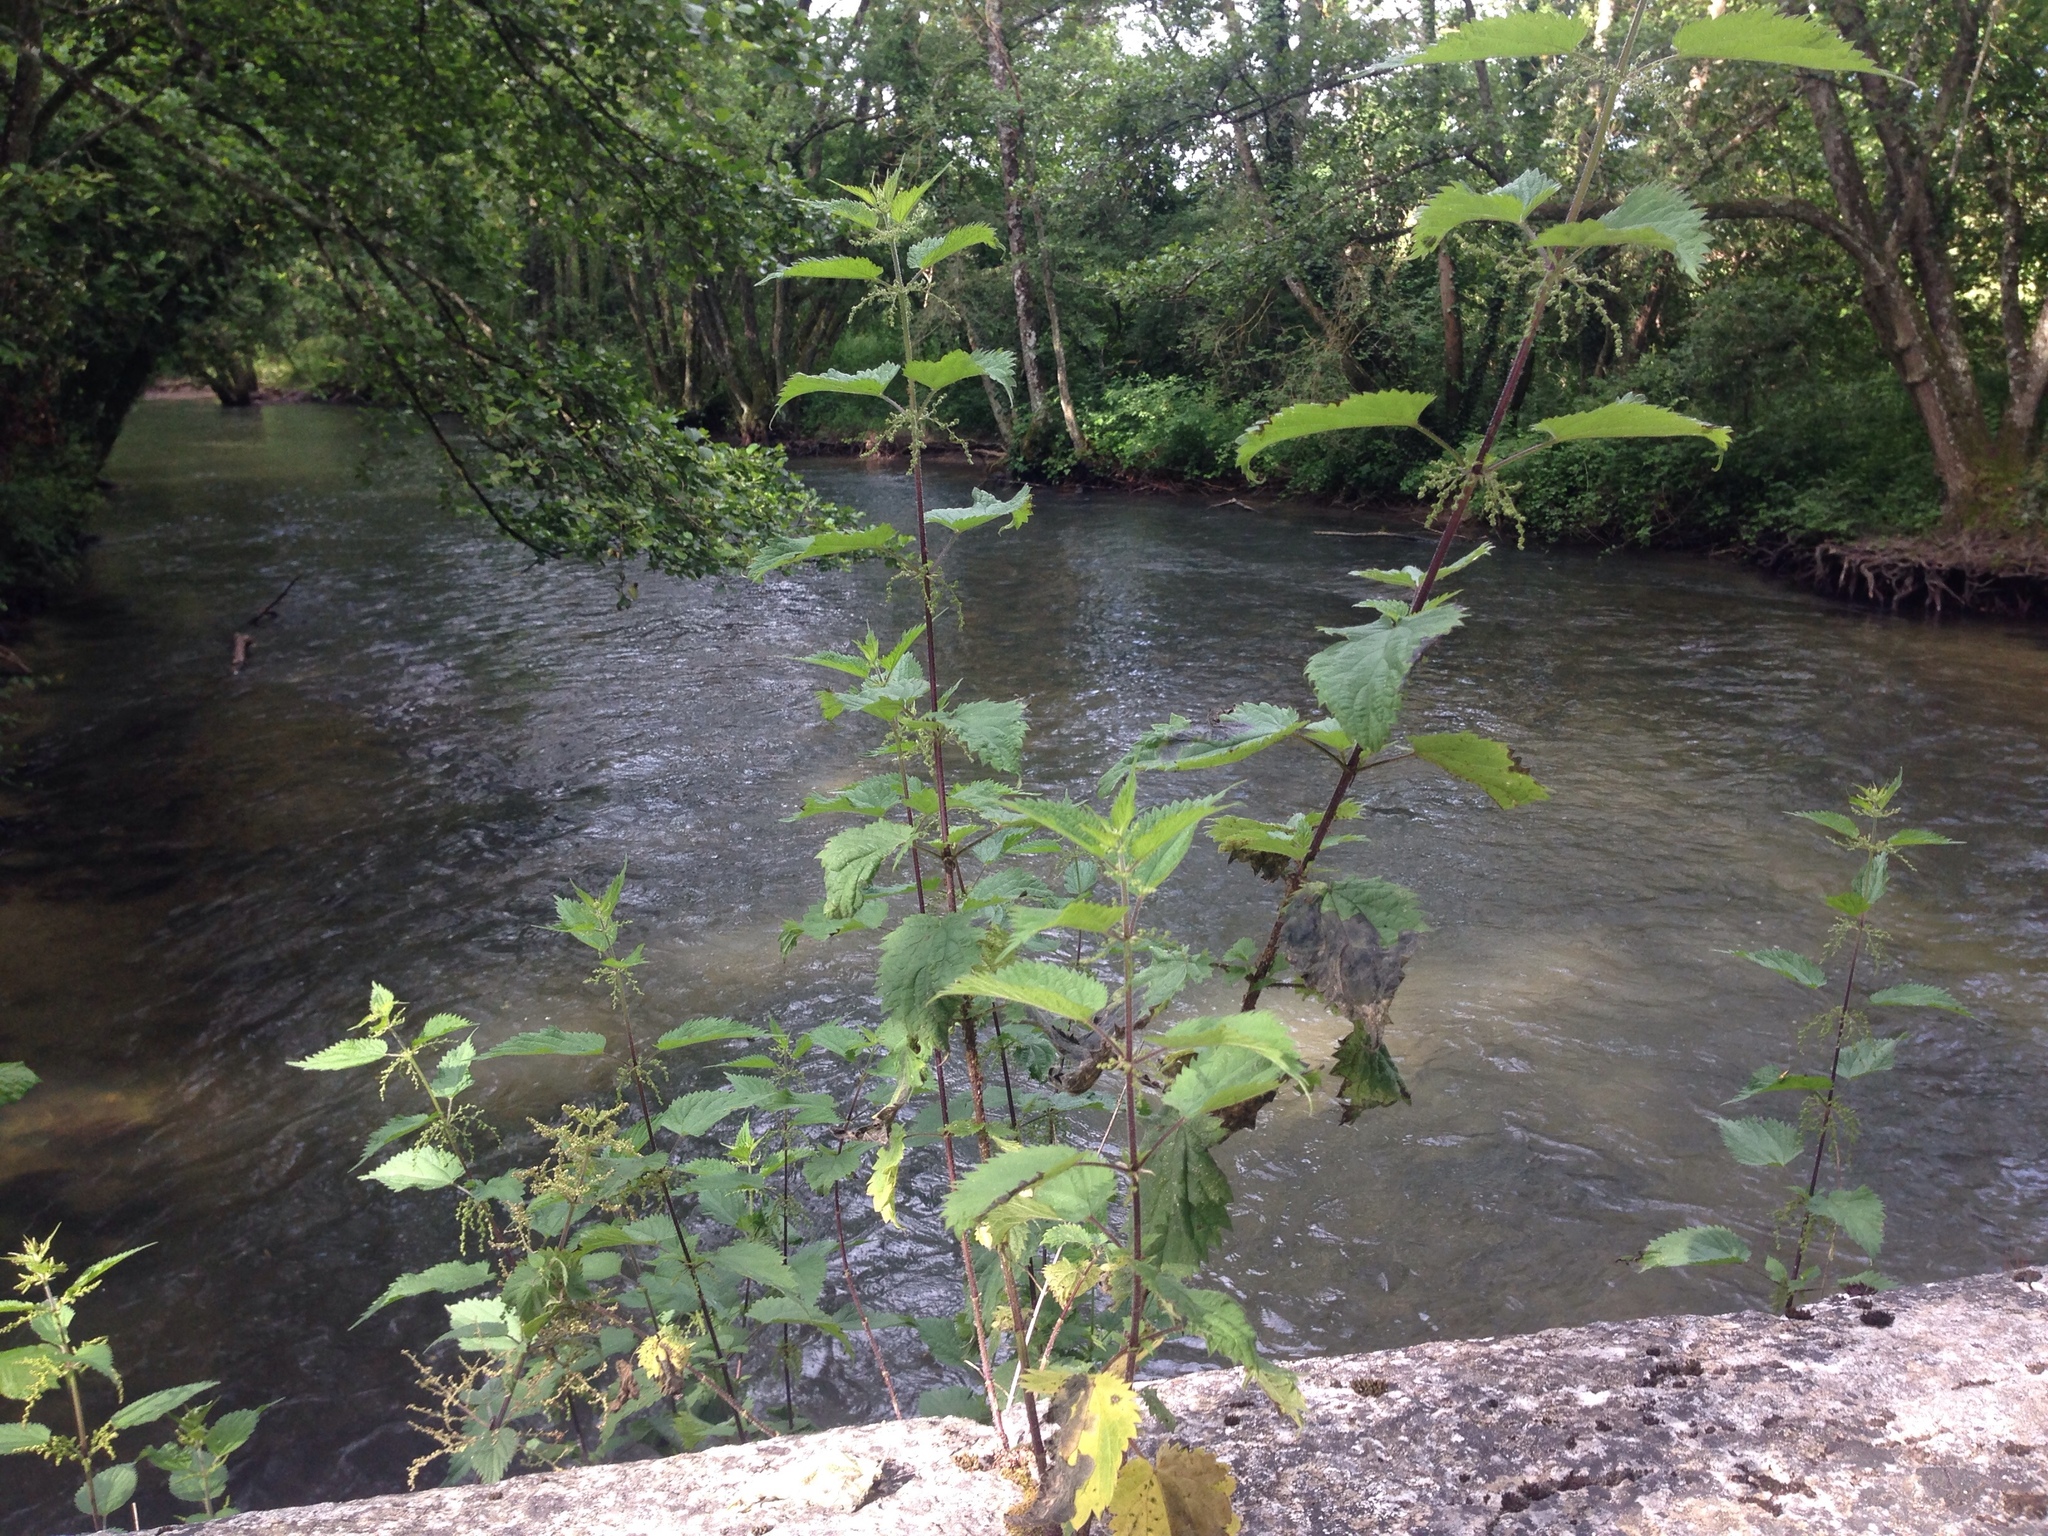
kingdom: Plantae
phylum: Tracheophyta
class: Magnoliopsida
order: Rosales
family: Urticaceae
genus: Urtica
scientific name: Urtica dioica
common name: Common nettle
